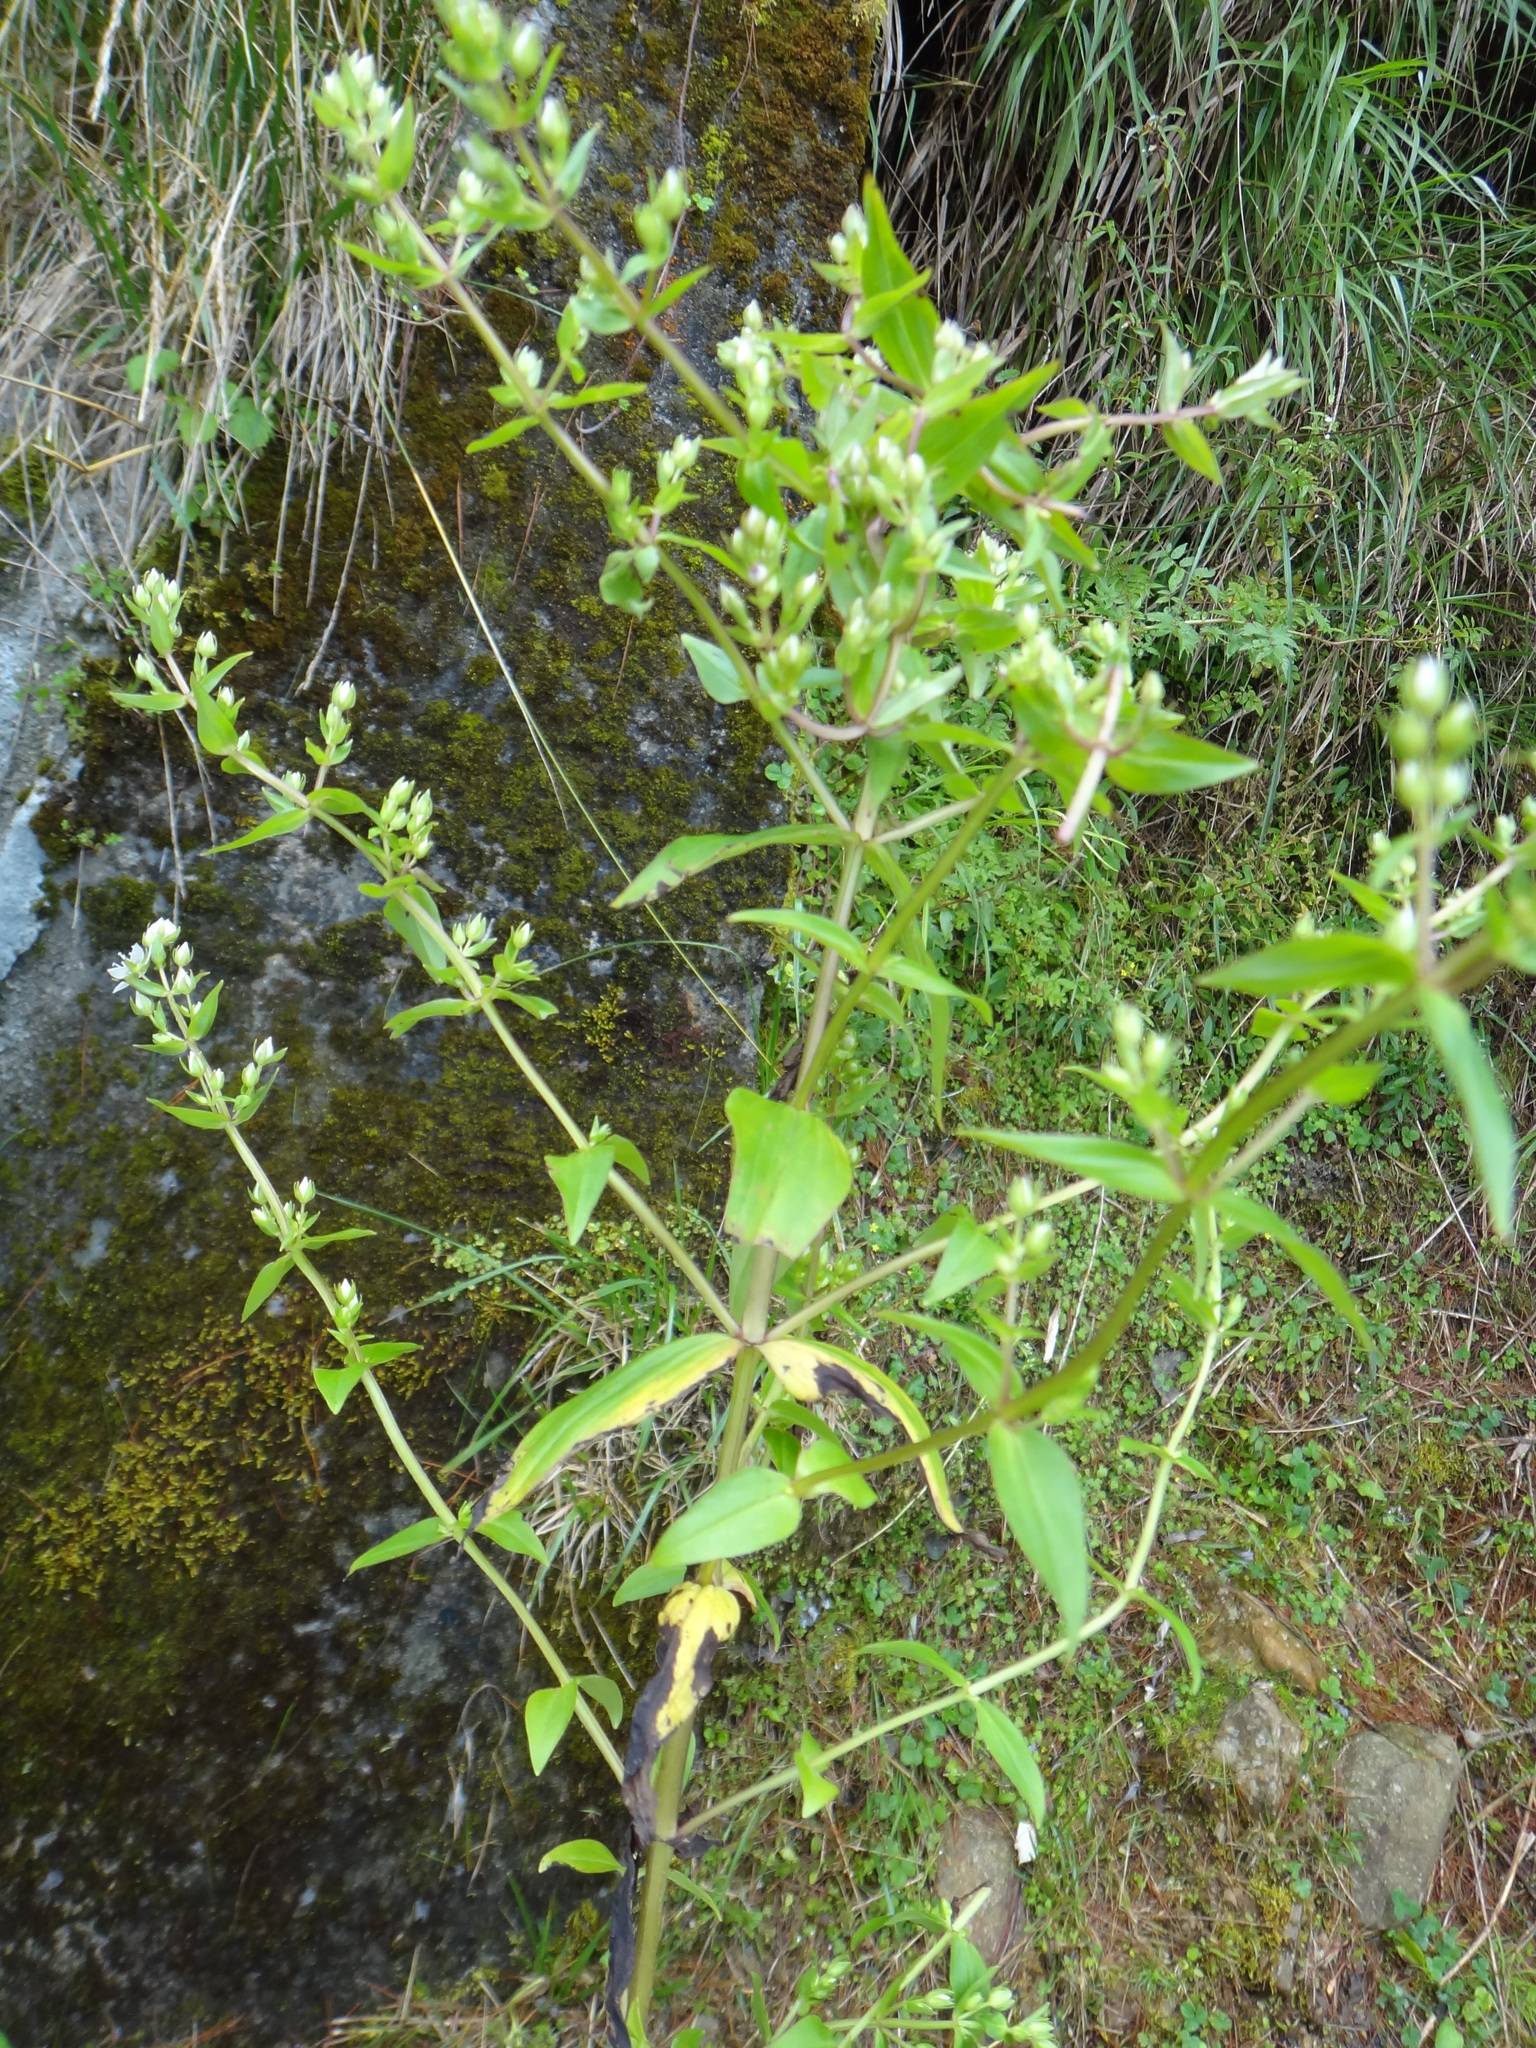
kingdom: Plantae
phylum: Tracheophyta
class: Magnoliopsida
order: Gentianales
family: Gentianaceae
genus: Swertia
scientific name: Swertia macrosperma
